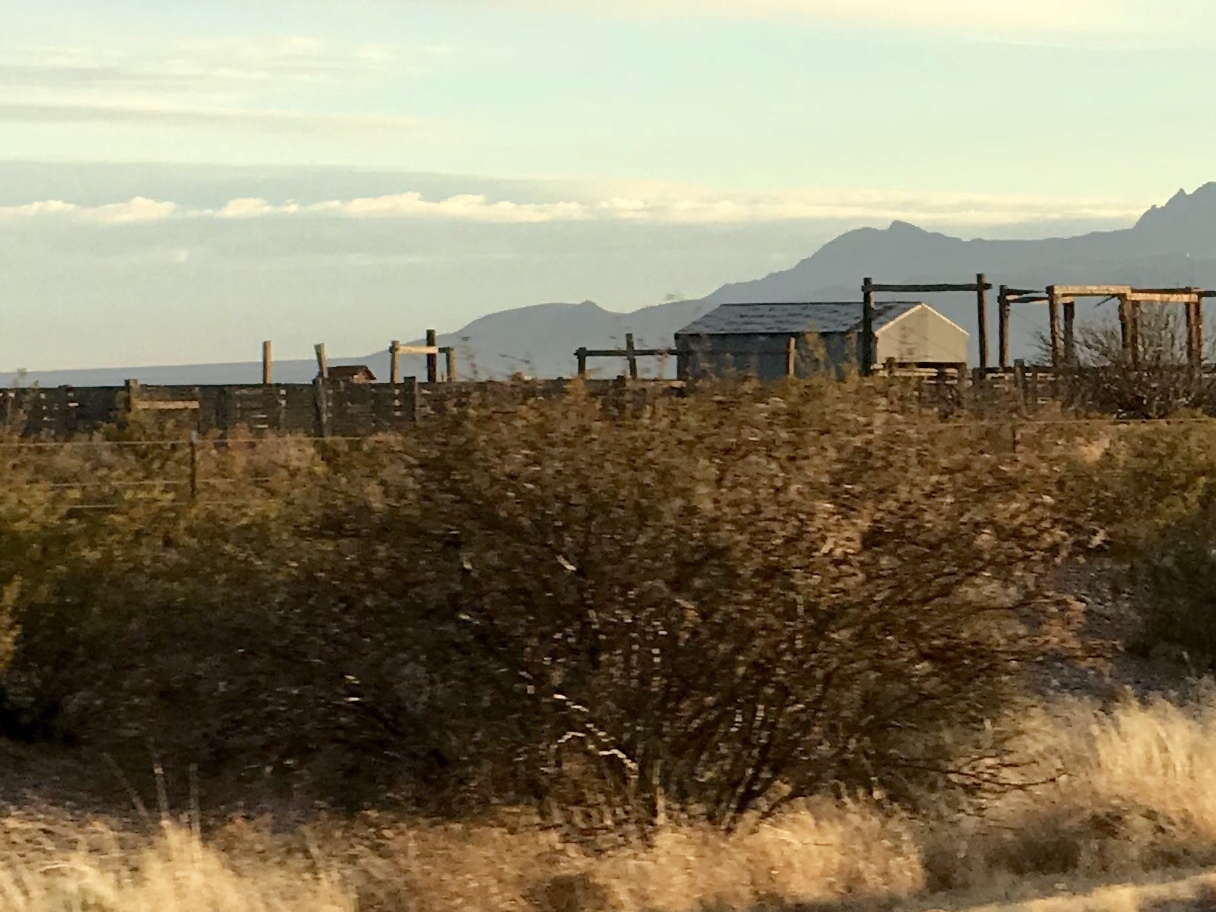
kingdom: Plantae
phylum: Tracheophyta
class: Magnoliopsida
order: Zygophyllales
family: Zygophyllaceae
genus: Larrea
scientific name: Larrea tridentata
